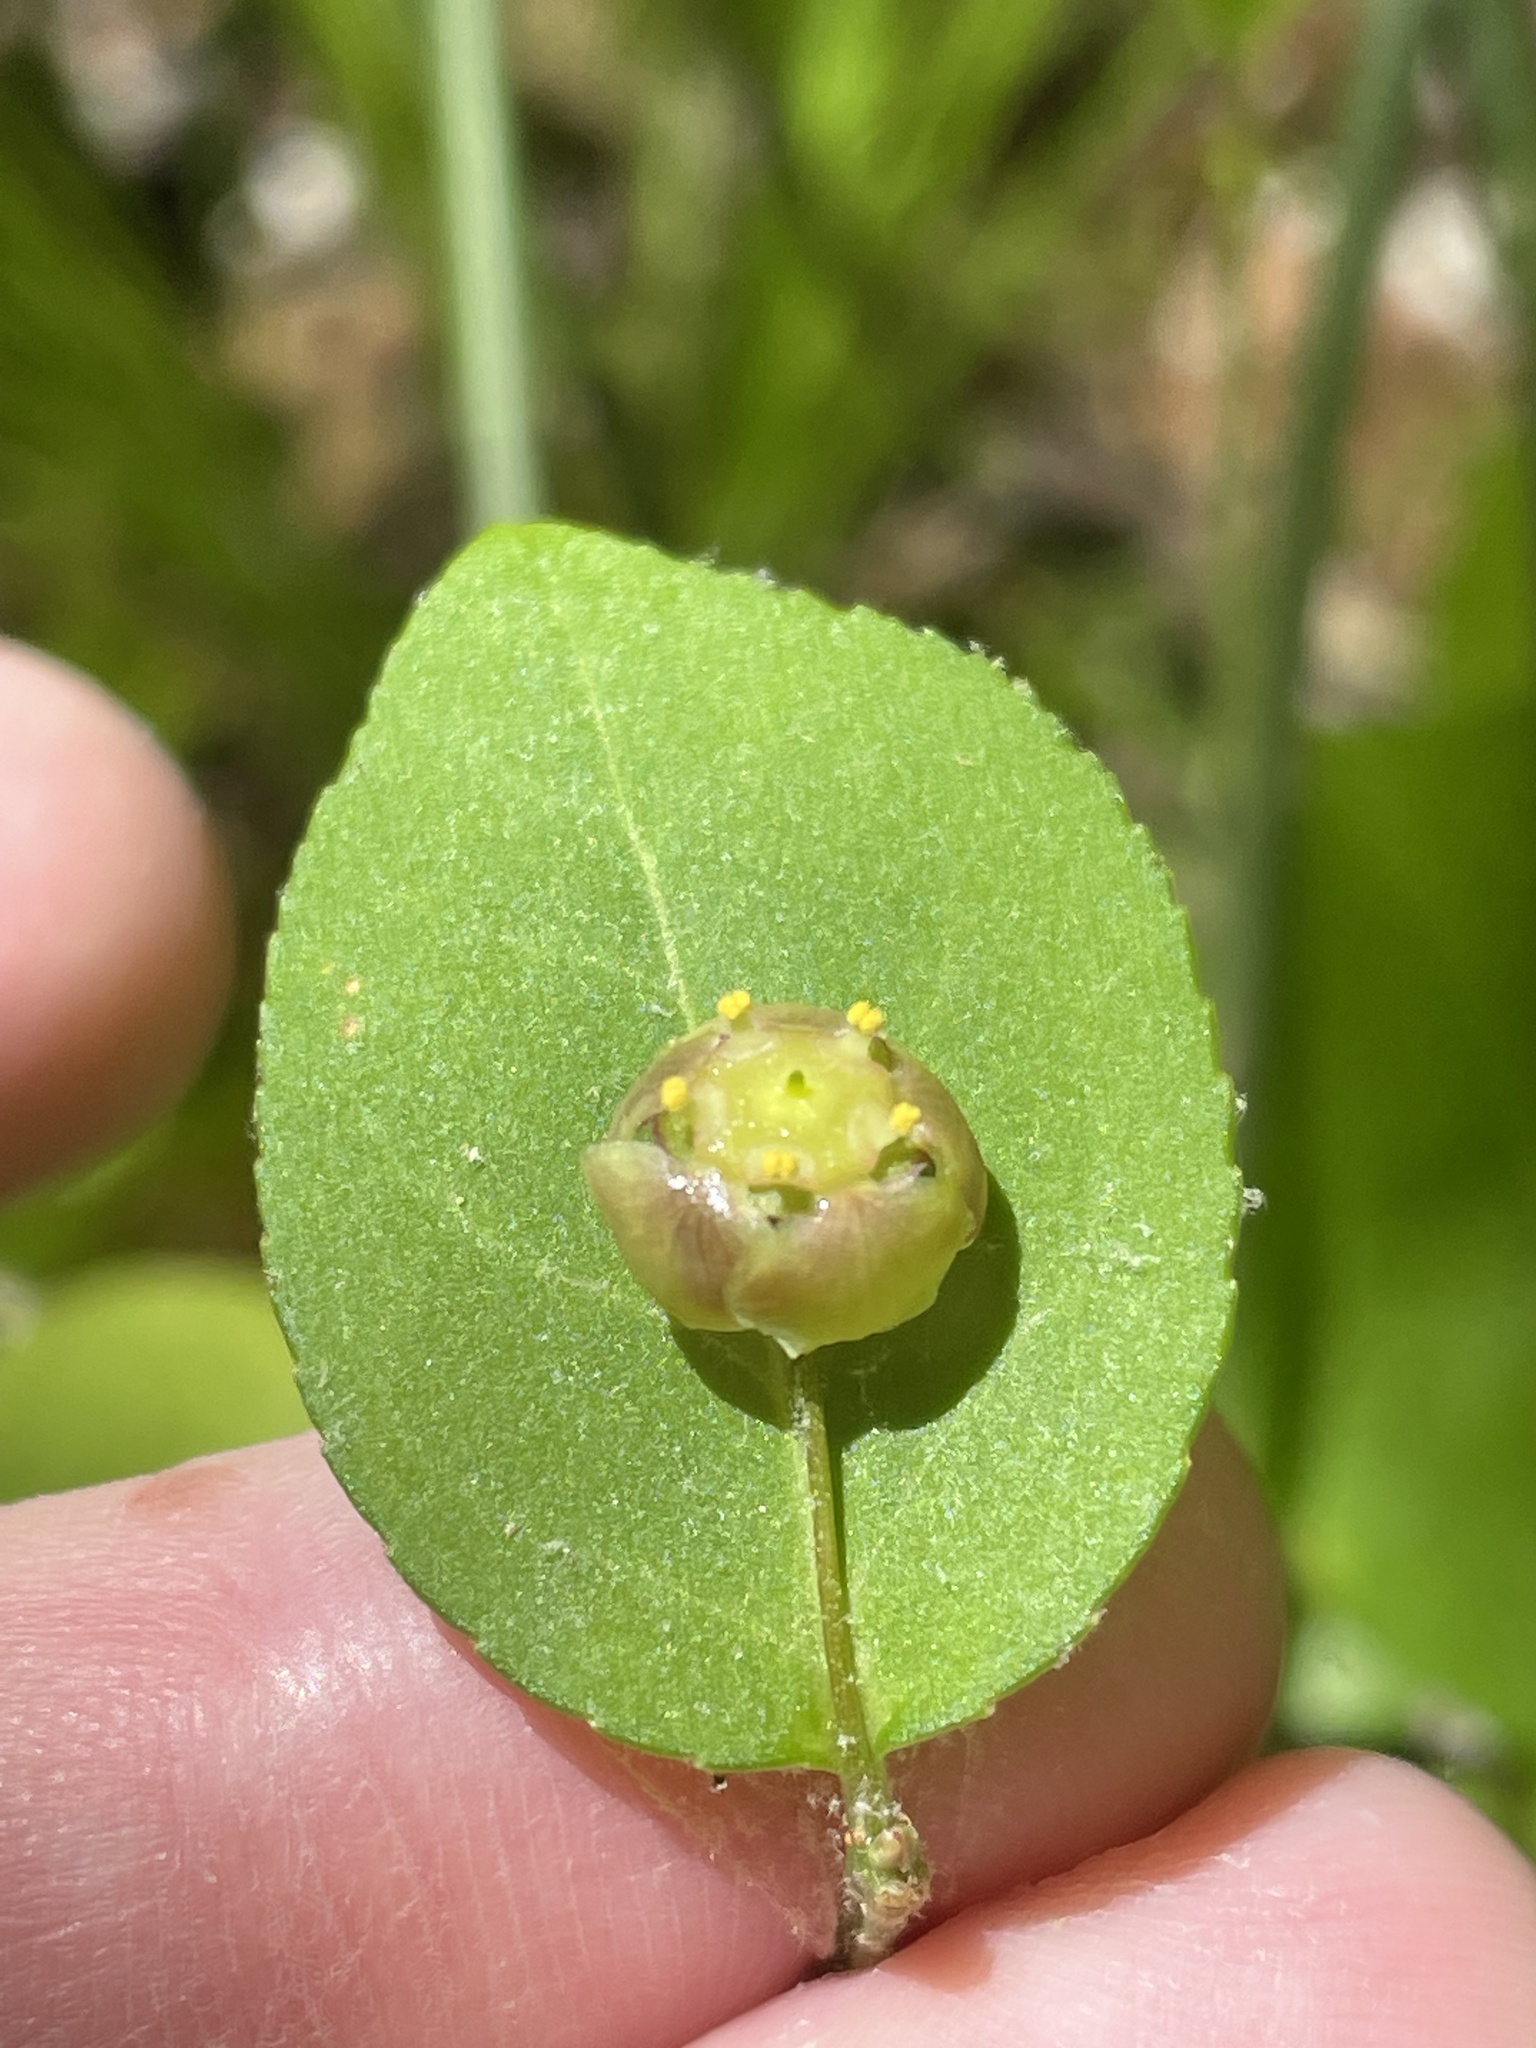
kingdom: Plantae
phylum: Tracheophyta
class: Magnoliopsida
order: Celastrales
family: Celastraceae
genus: Euonymus
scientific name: Euonymus americanus
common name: Bursting-heart
